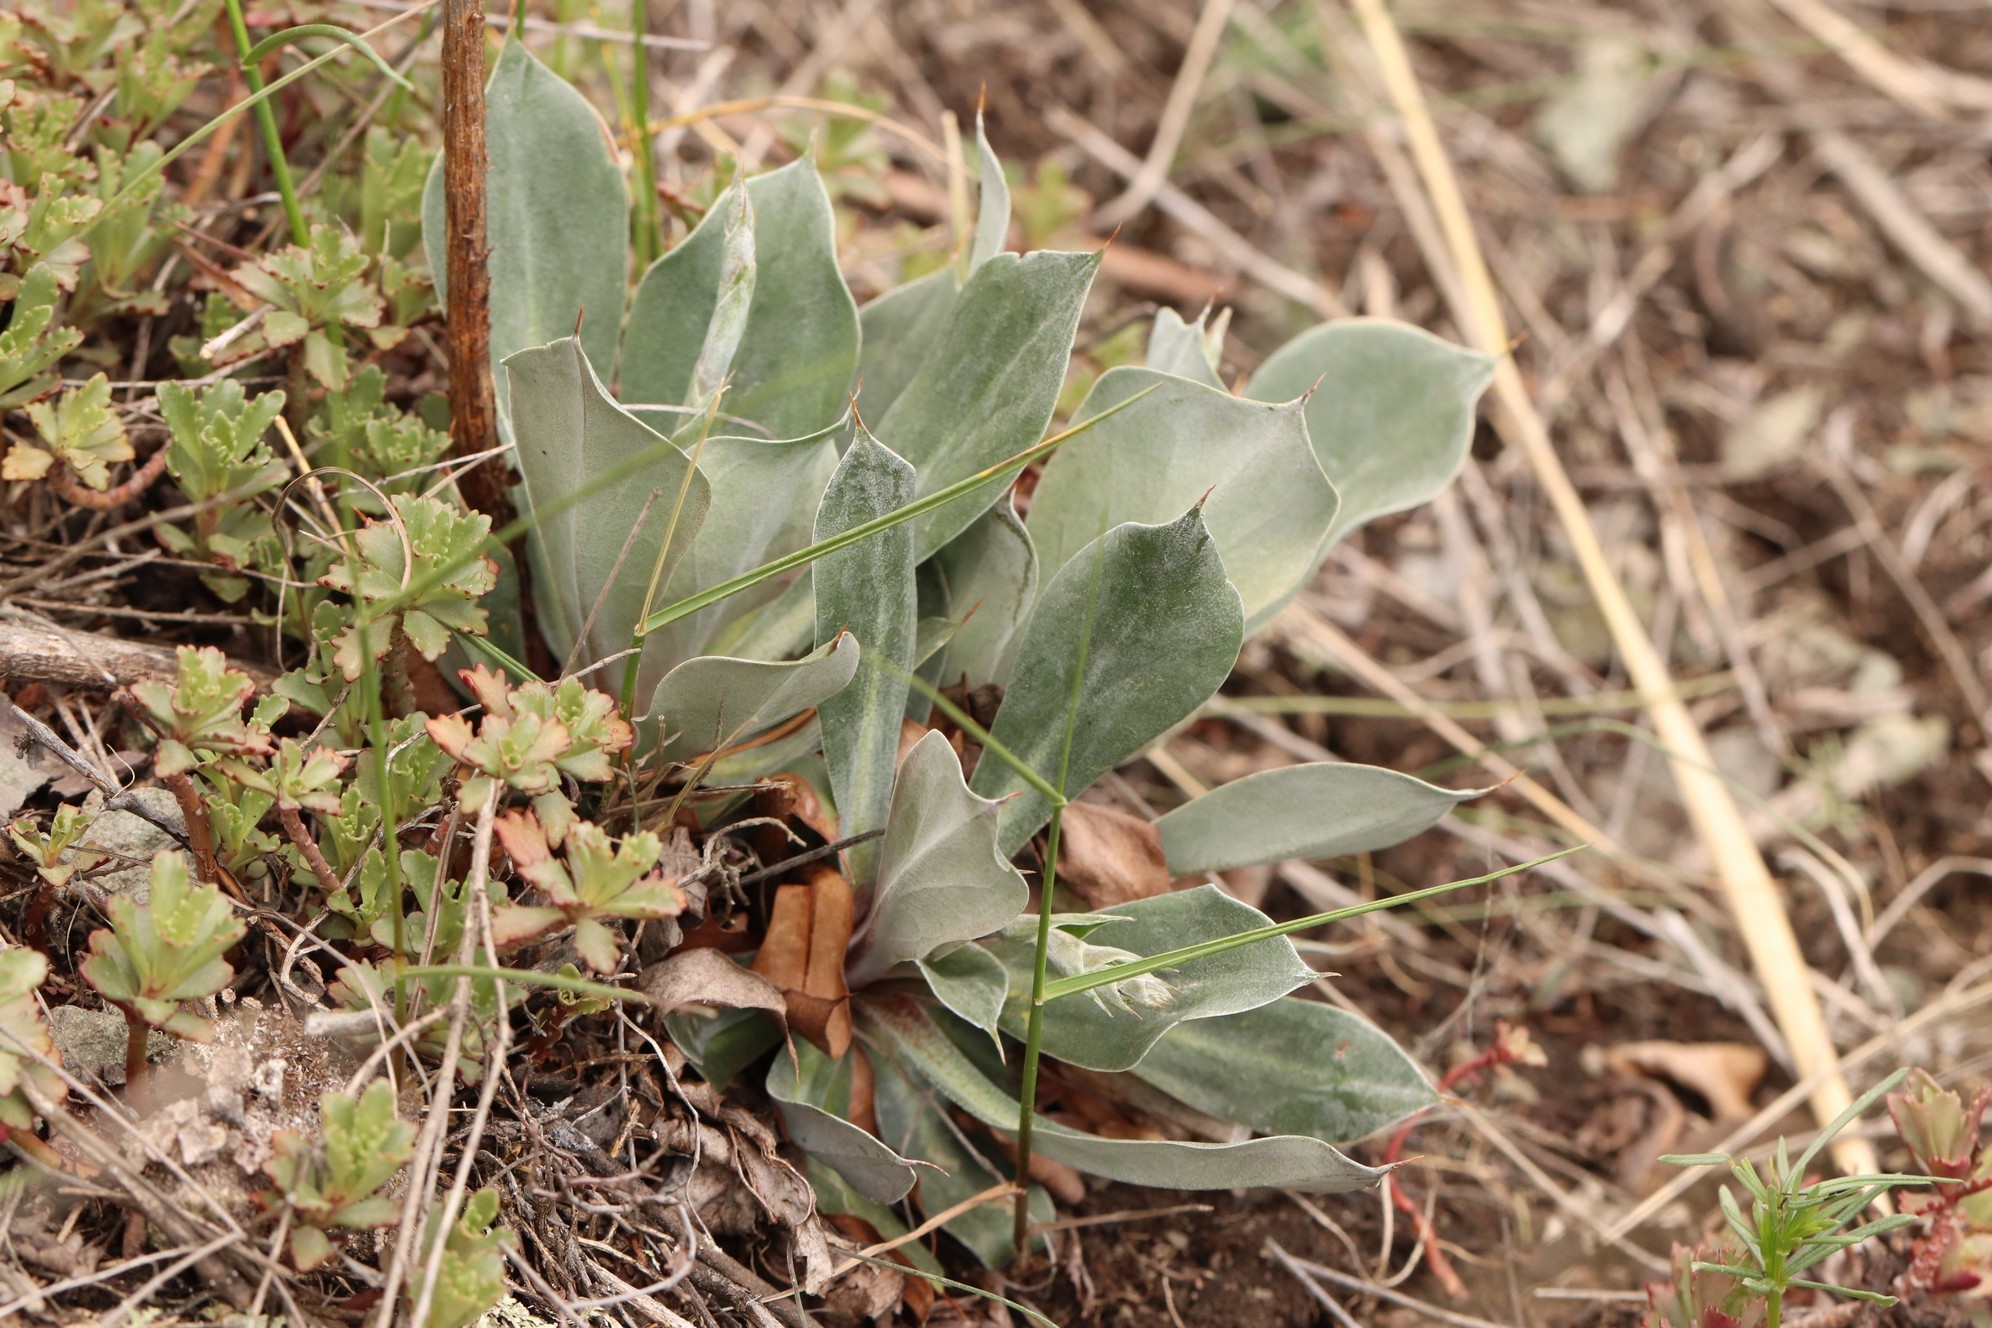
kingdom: Plantae
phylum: Tracheophyta
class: Magnoliopsida
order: Caryophyllales
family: Plumbaginaceae
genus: Goniolimon
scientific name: Goniolimon speciosum
